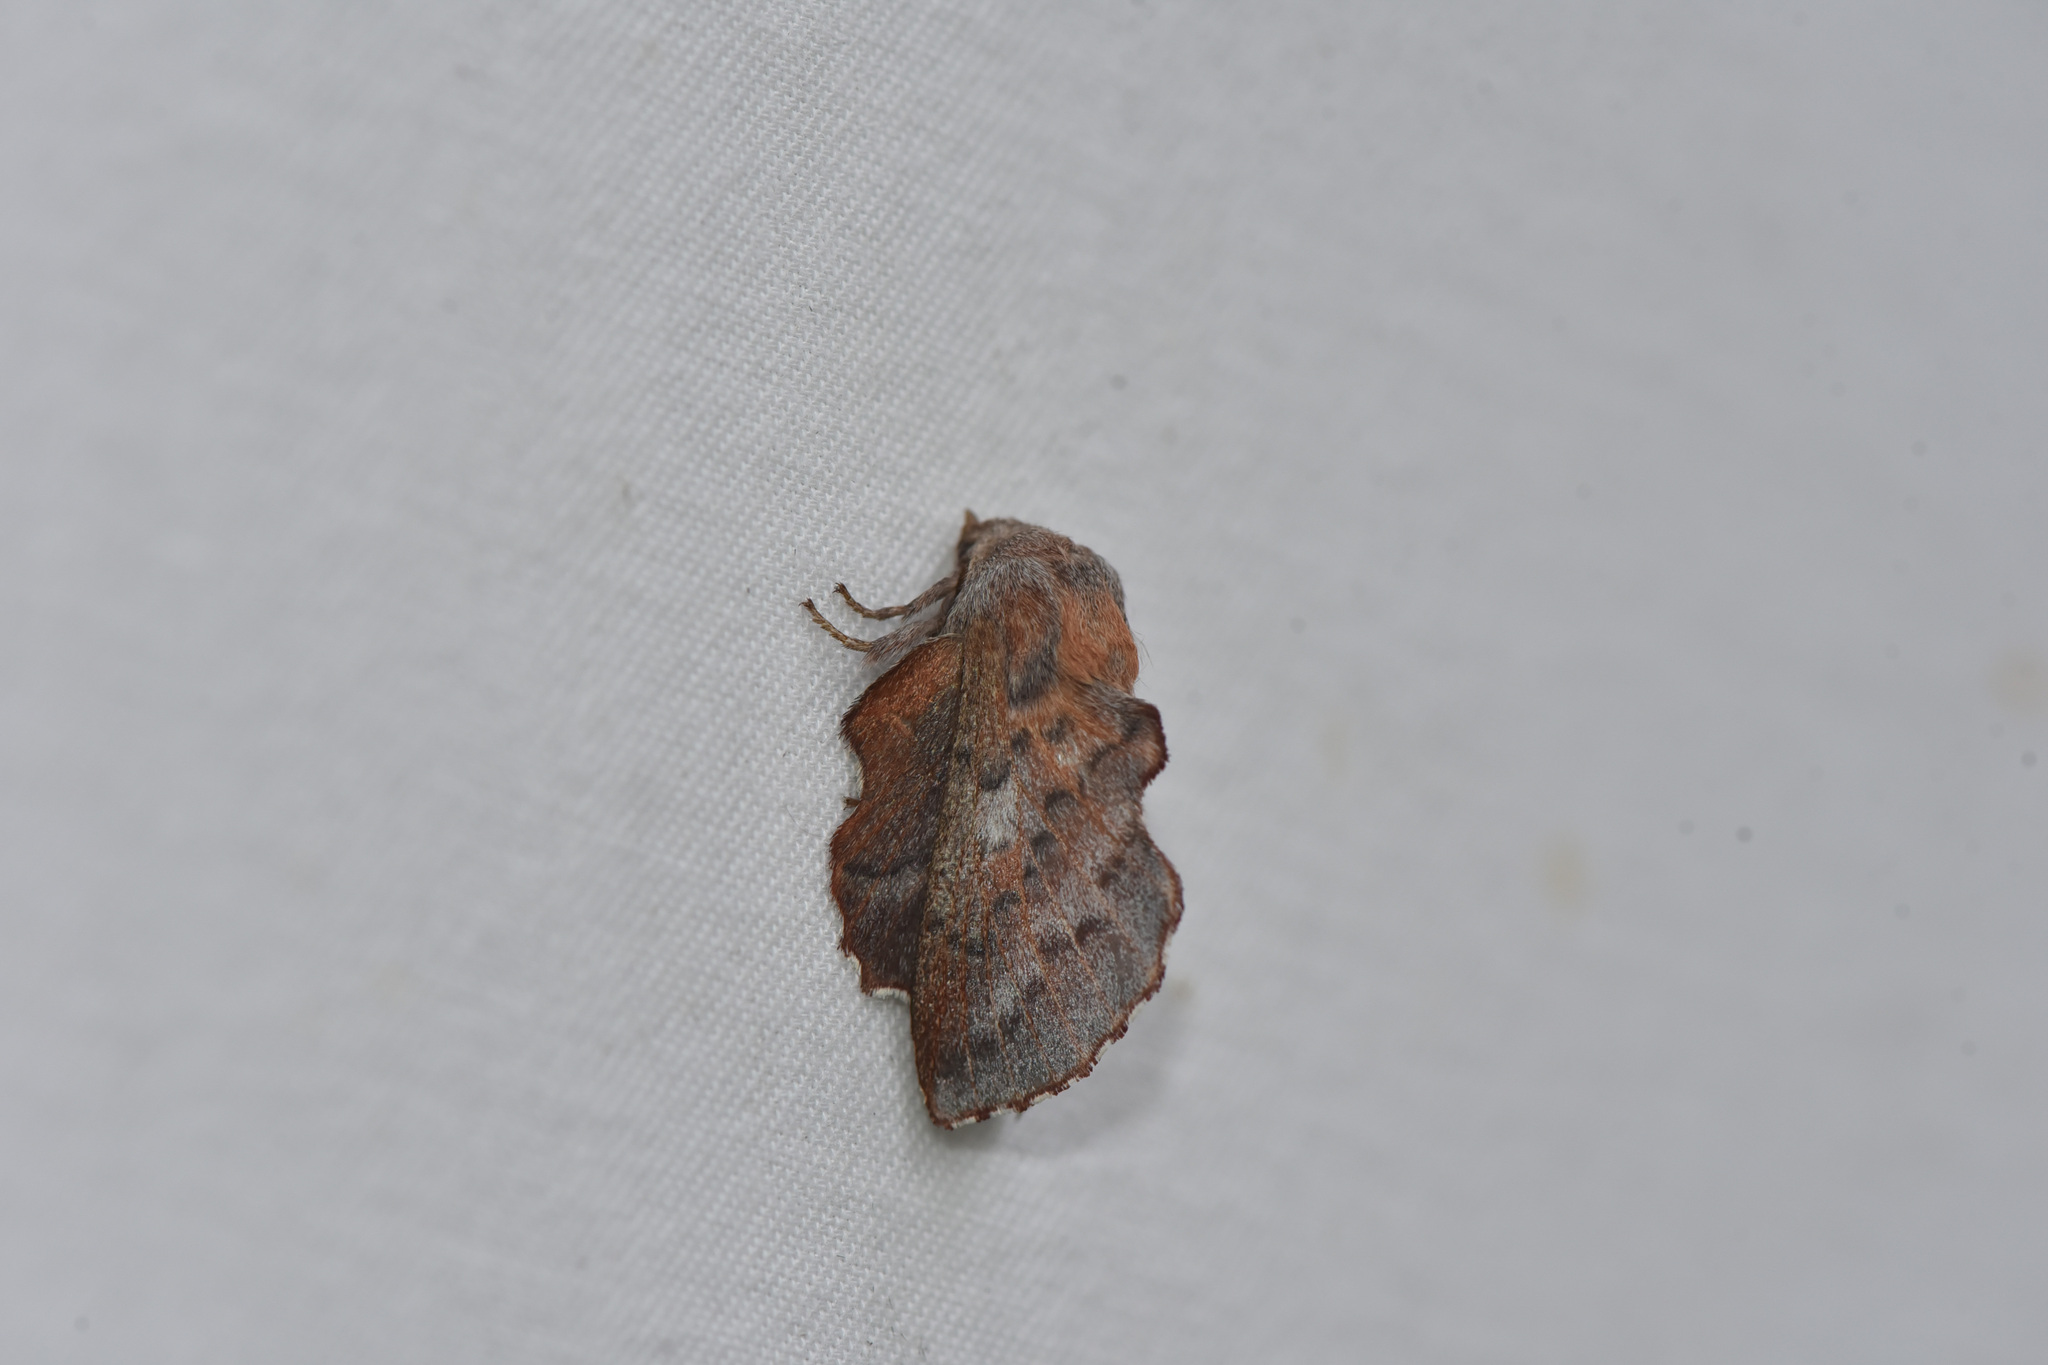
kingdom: Animalia
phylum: Arthropoda
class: Insecta
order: Lepidoptera
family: Lasiocampidae
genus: Phyllodesma
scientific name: Phyllodesma americana
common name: American lappet moth
